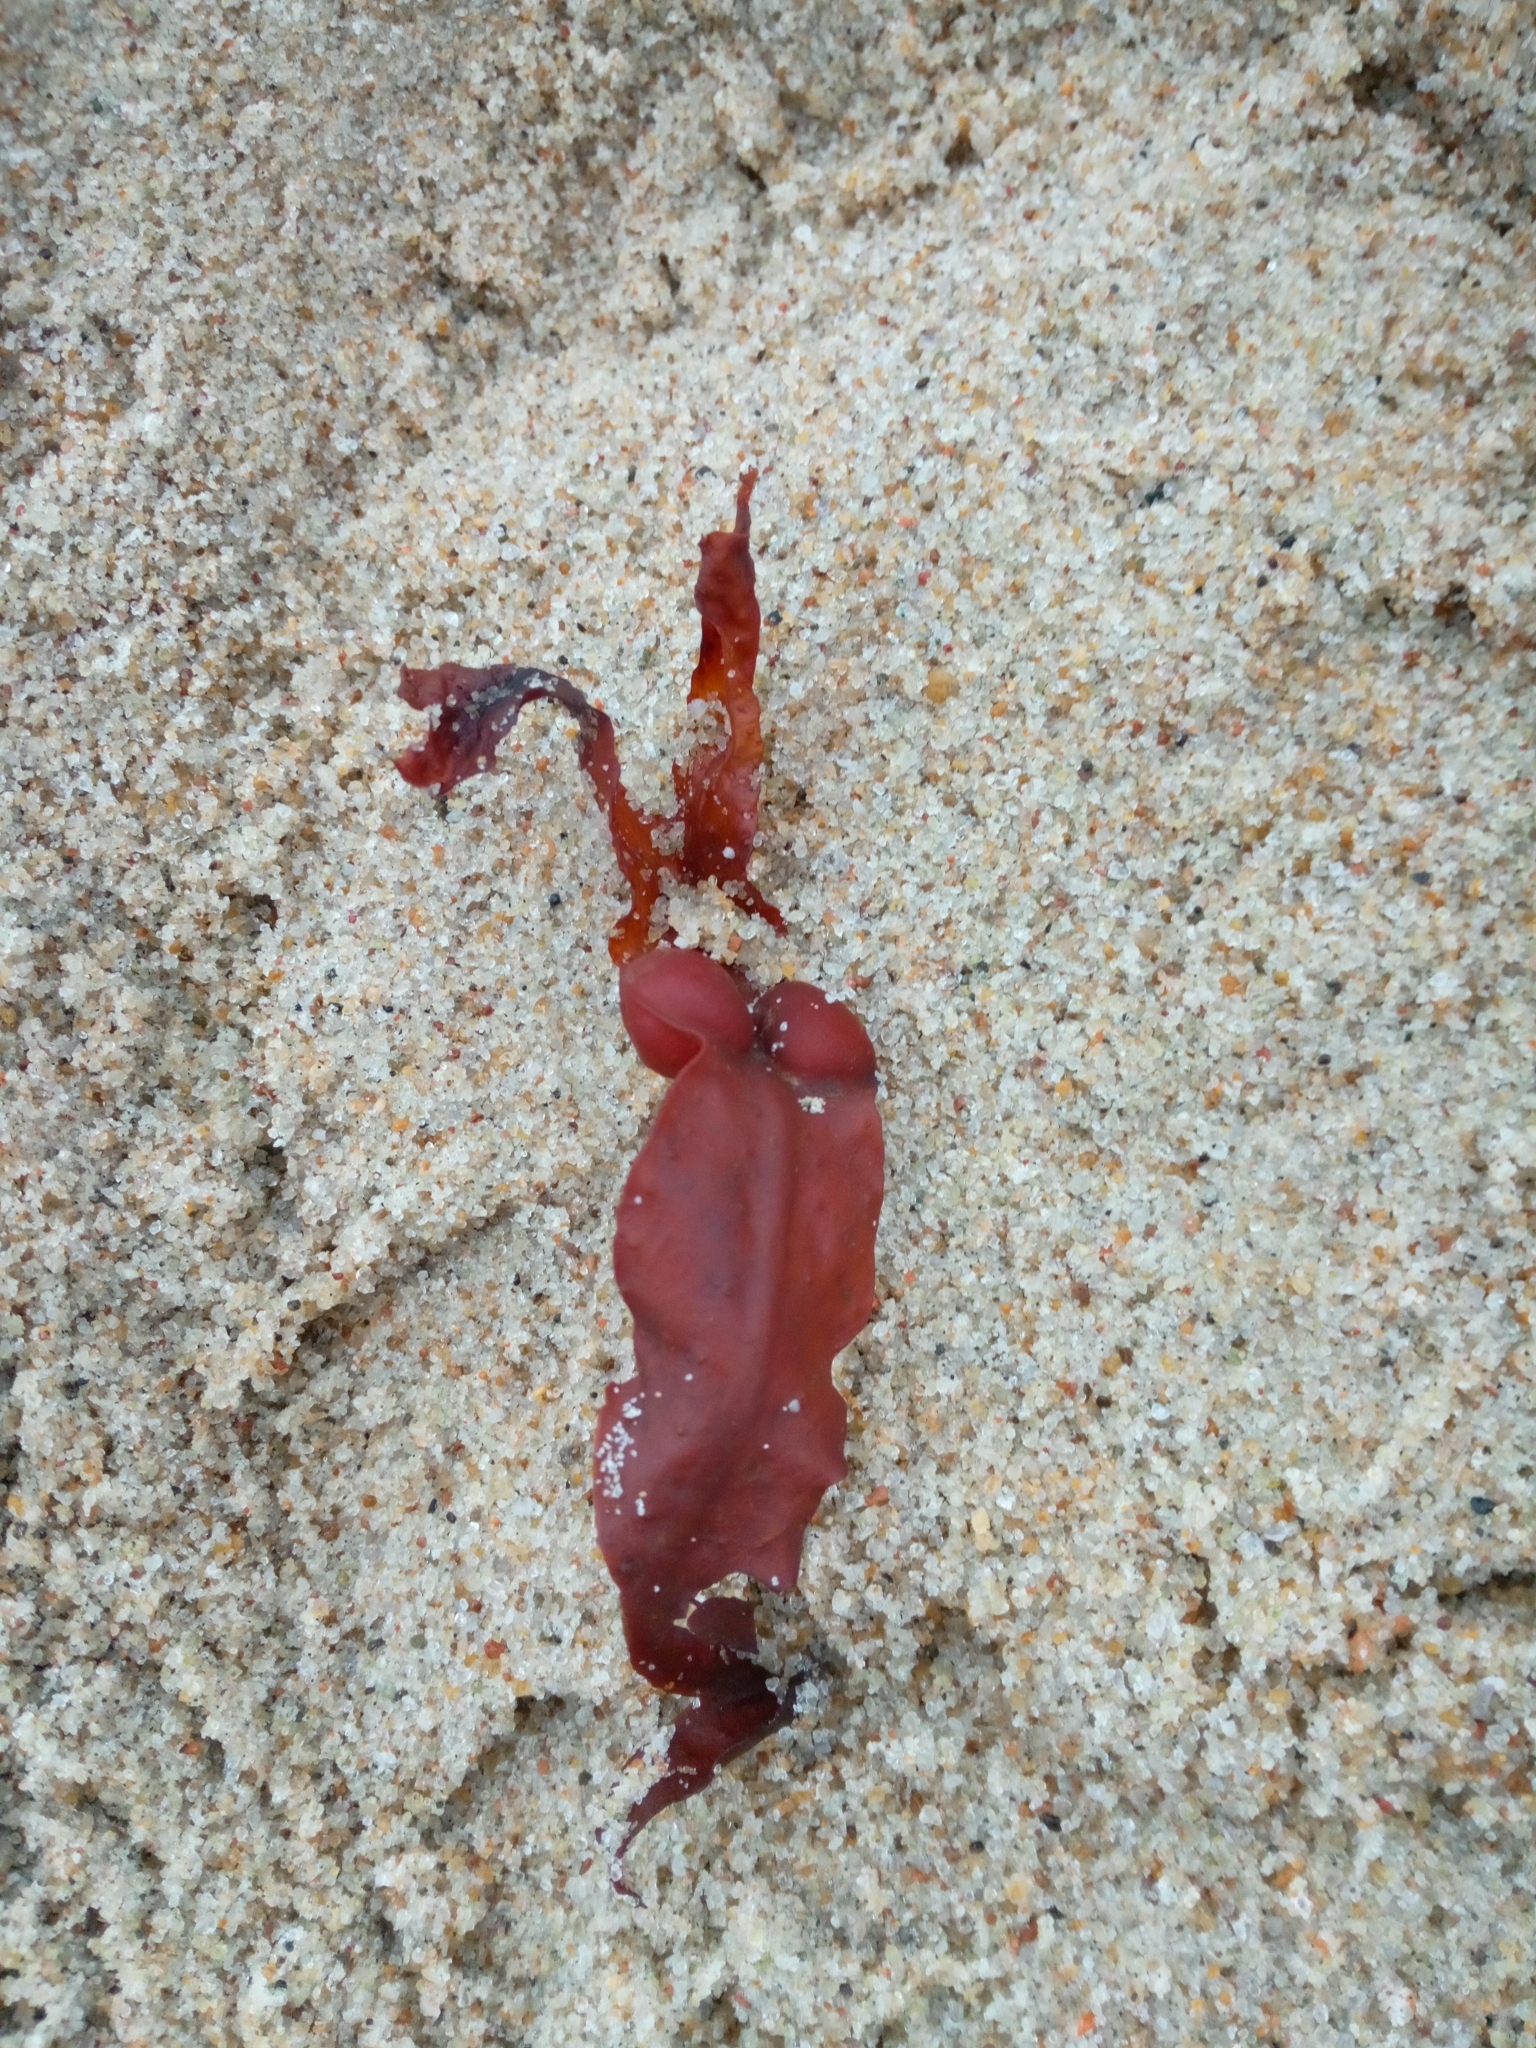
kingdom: Chromista
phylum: Ochrophyta
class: Phaeophyceae
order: Fucales
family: Fucaceae
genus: Fucus
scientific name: Fucus vesiculosus
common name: Bladder wrack
